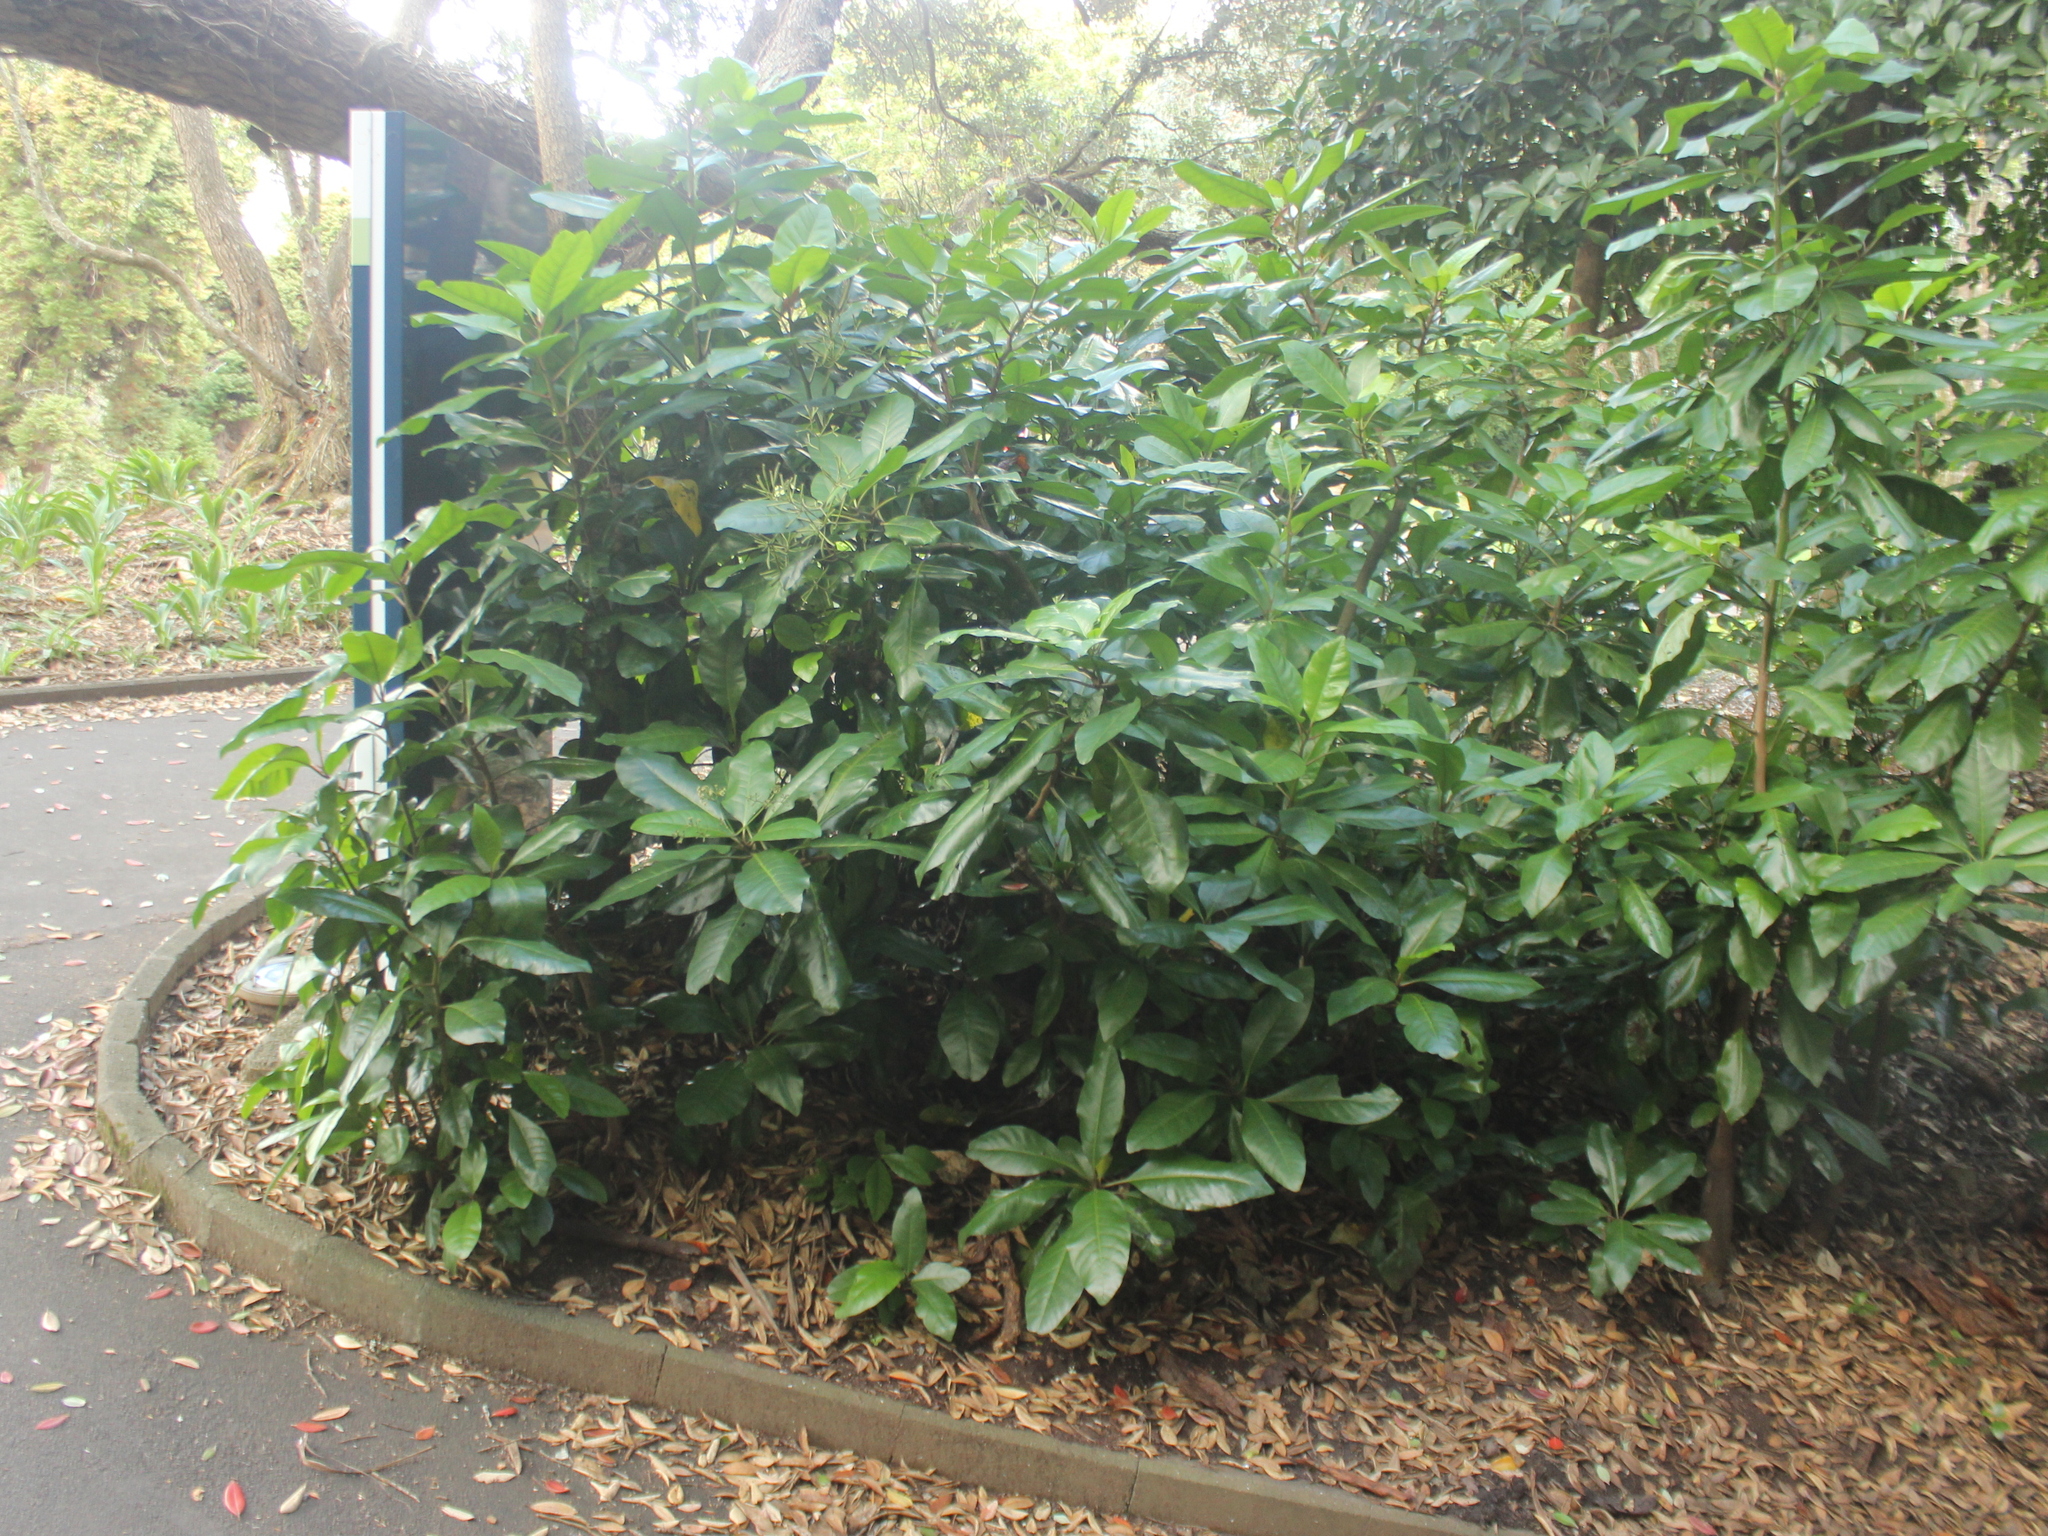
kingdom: Plantae
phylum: Tracheophyta
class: Magnoliopsida
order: Caryophyllales
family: Nyctaginaceae
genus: Ceodes
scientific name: Ceodes brunoniana
